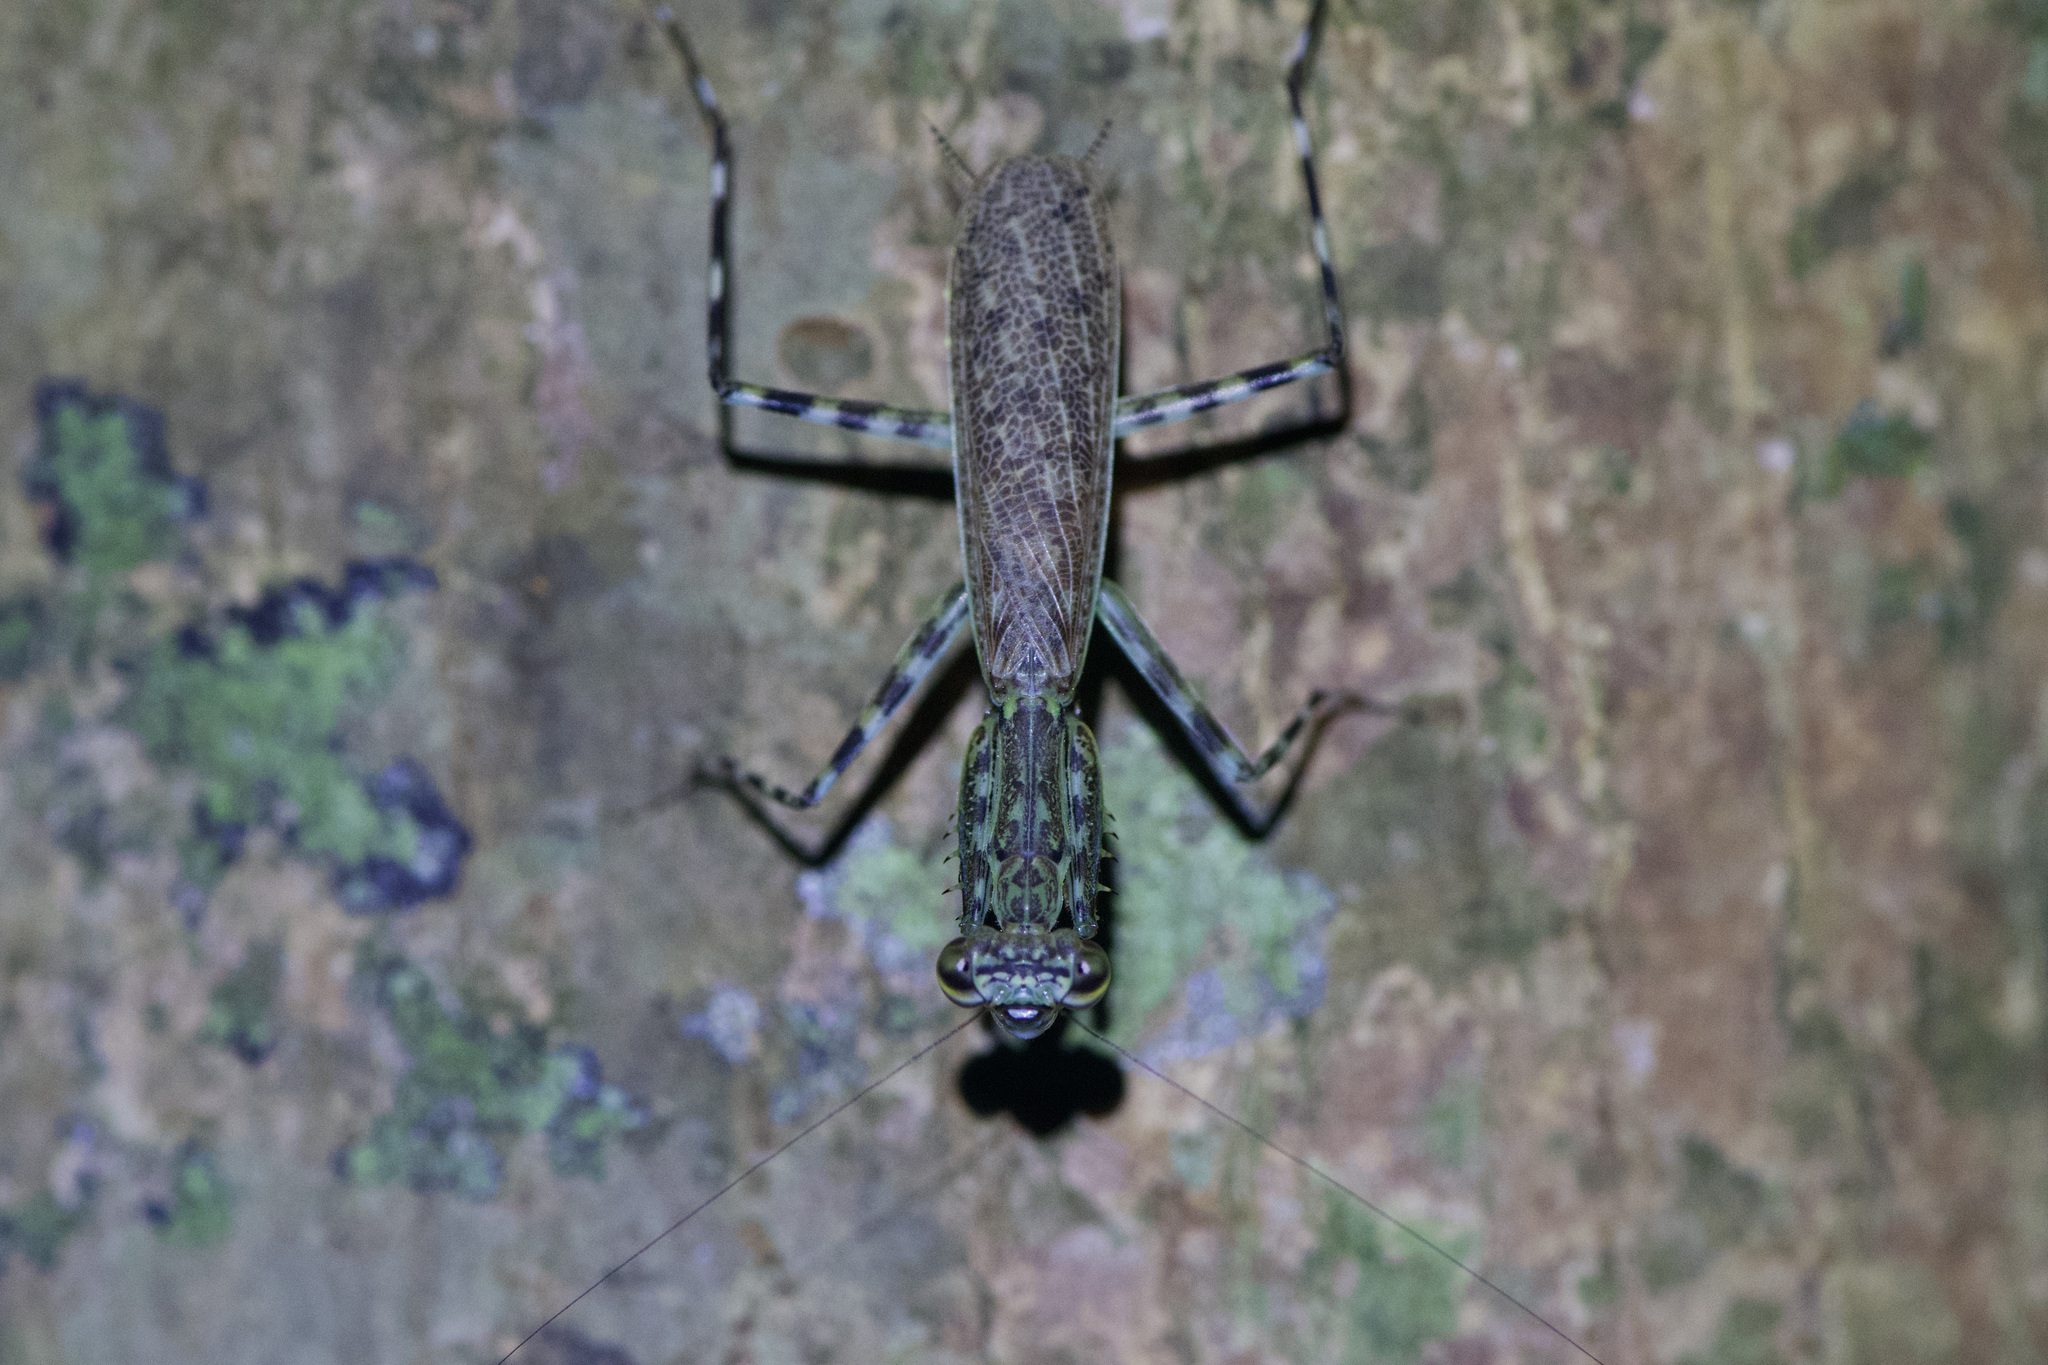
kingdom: Animalia
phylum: Arthropoda
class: Insecta
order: Mantodea
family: Liturgusidae
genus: Liturgusa
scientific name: Liturgusa maya
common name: Mantis
